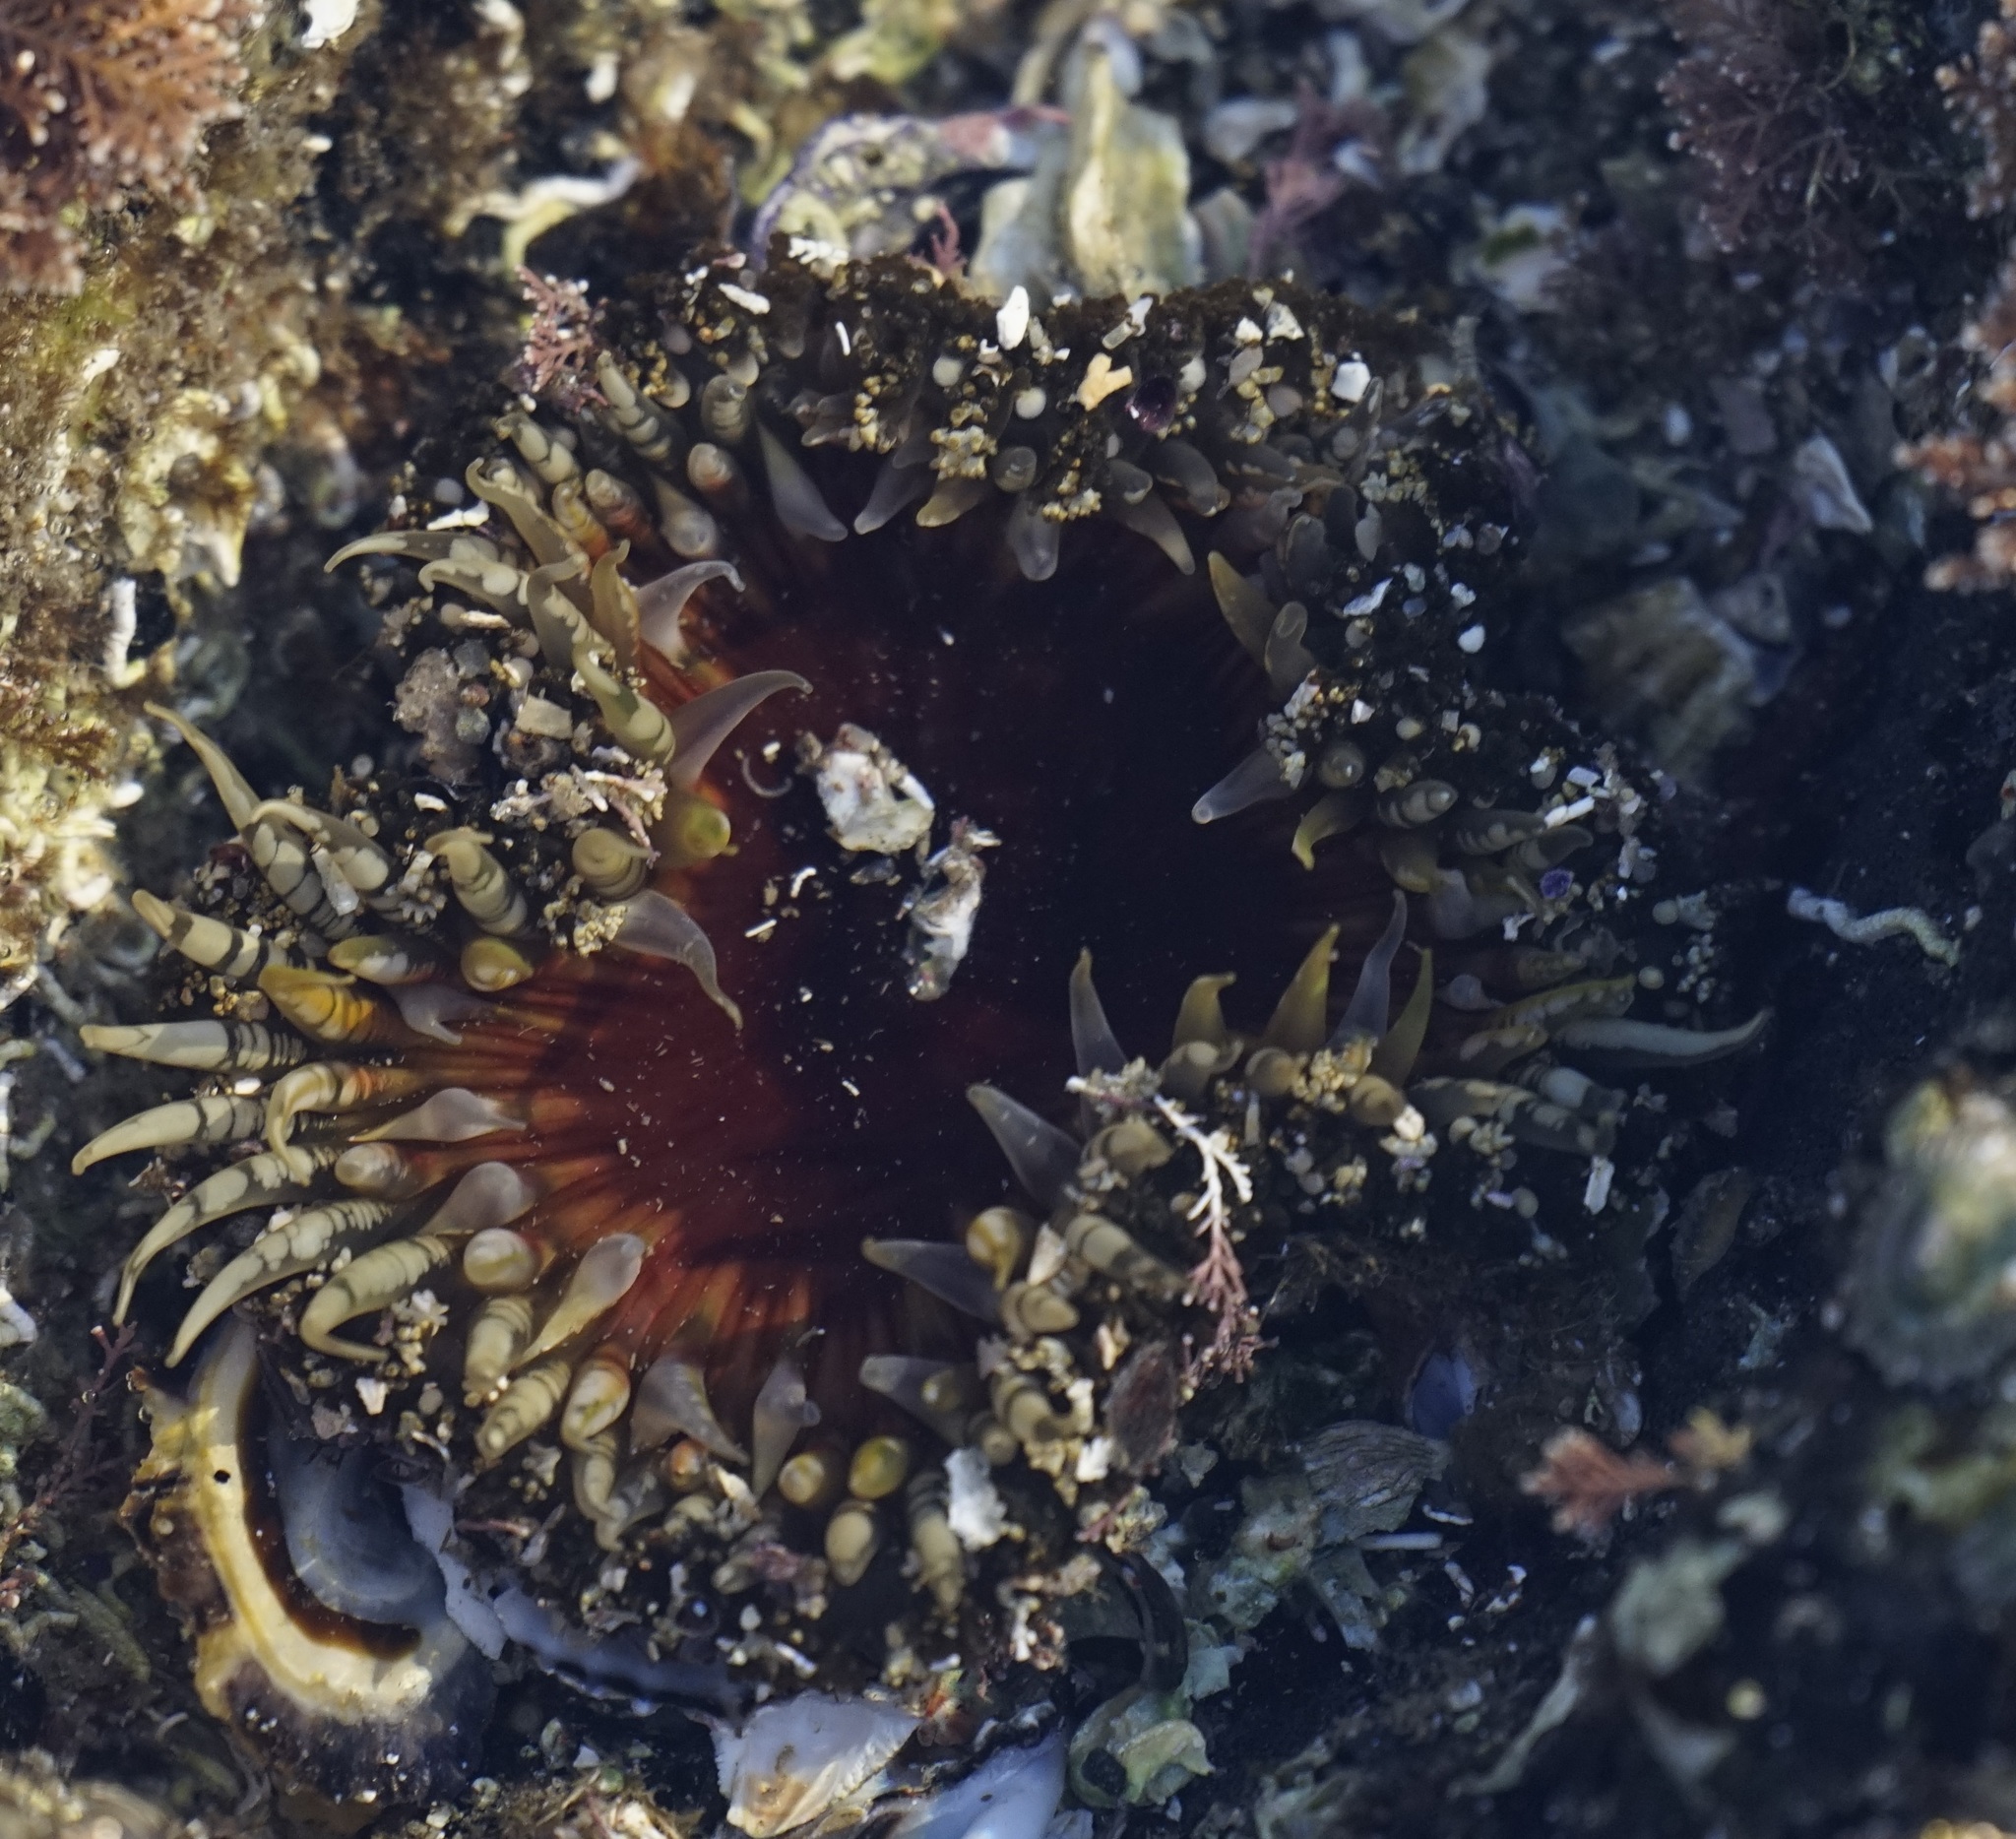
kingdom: Animalia
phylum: Cnidaria
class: Anthozoa
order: Actiniaria
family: Actiniidae
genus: Oulactis
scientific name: Oulactis muscosa
